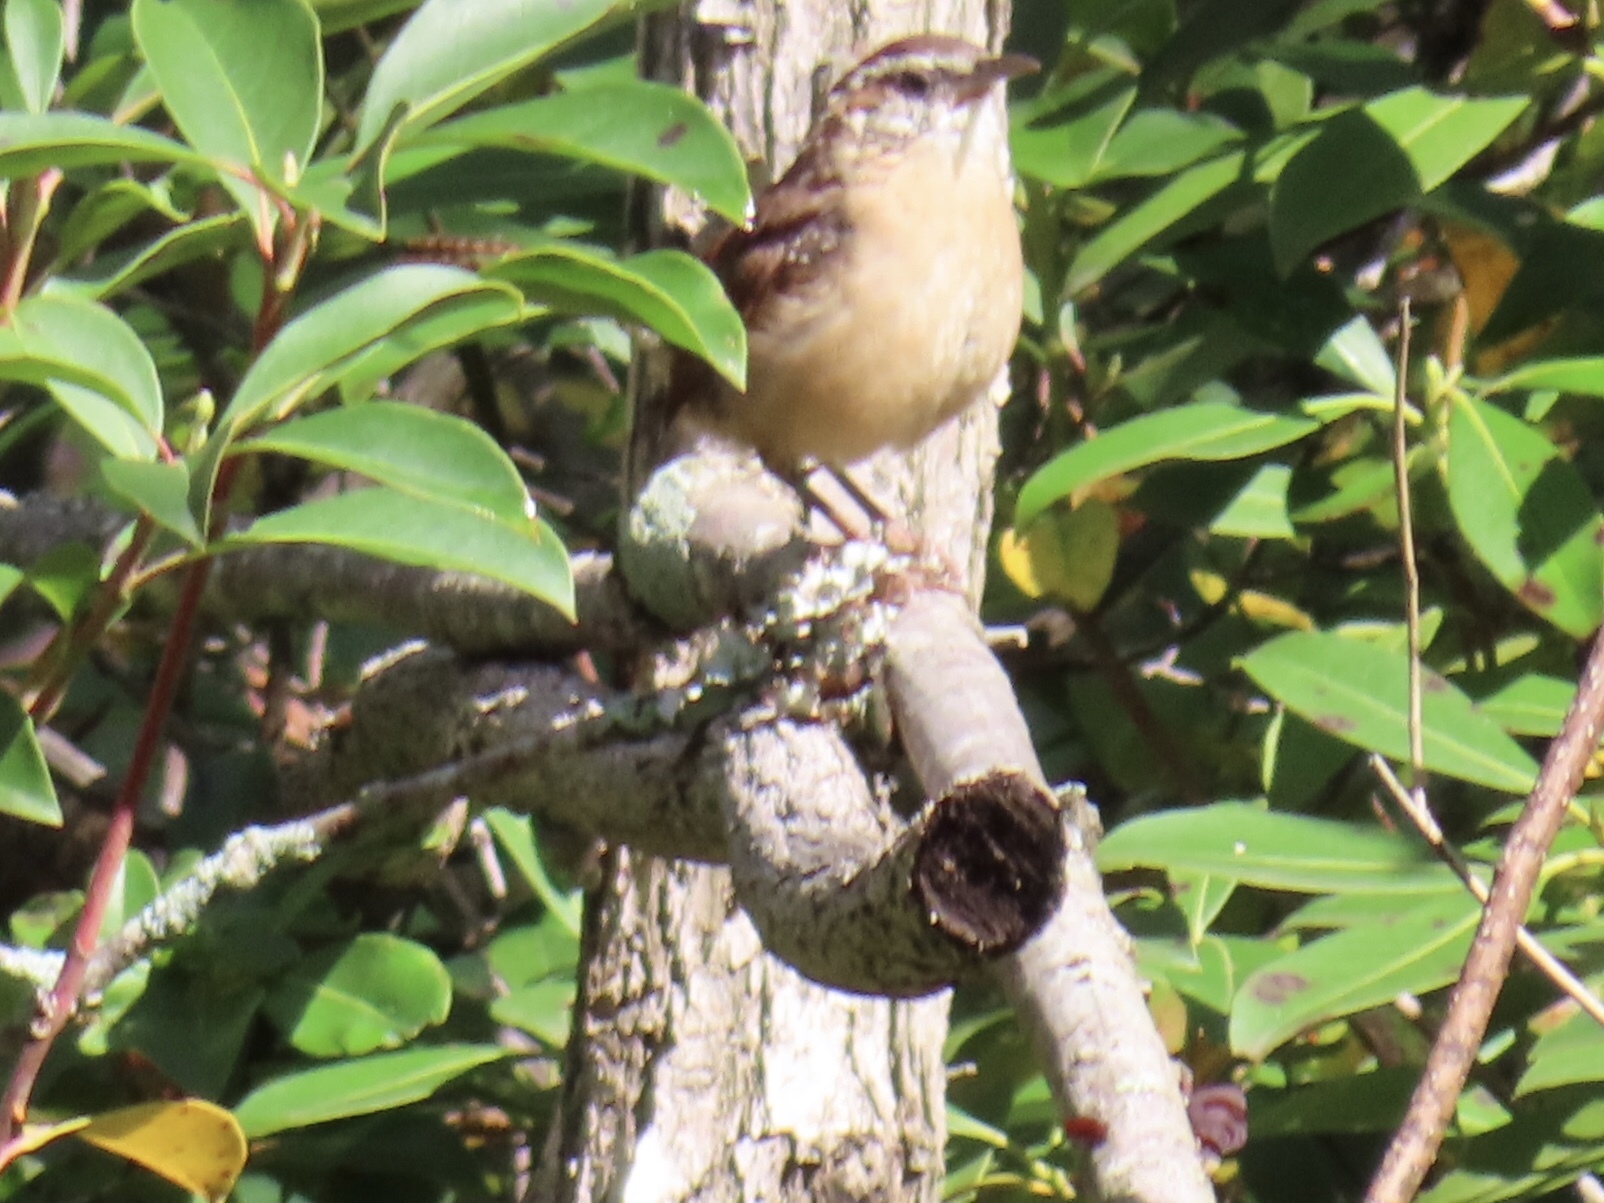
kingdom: Animalia
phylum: Chordata
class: Aves
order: Passeriformes
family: Troglodytidae
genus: Thryothorus
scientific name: Thryothorus ludovicianus
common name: Carolina wren
